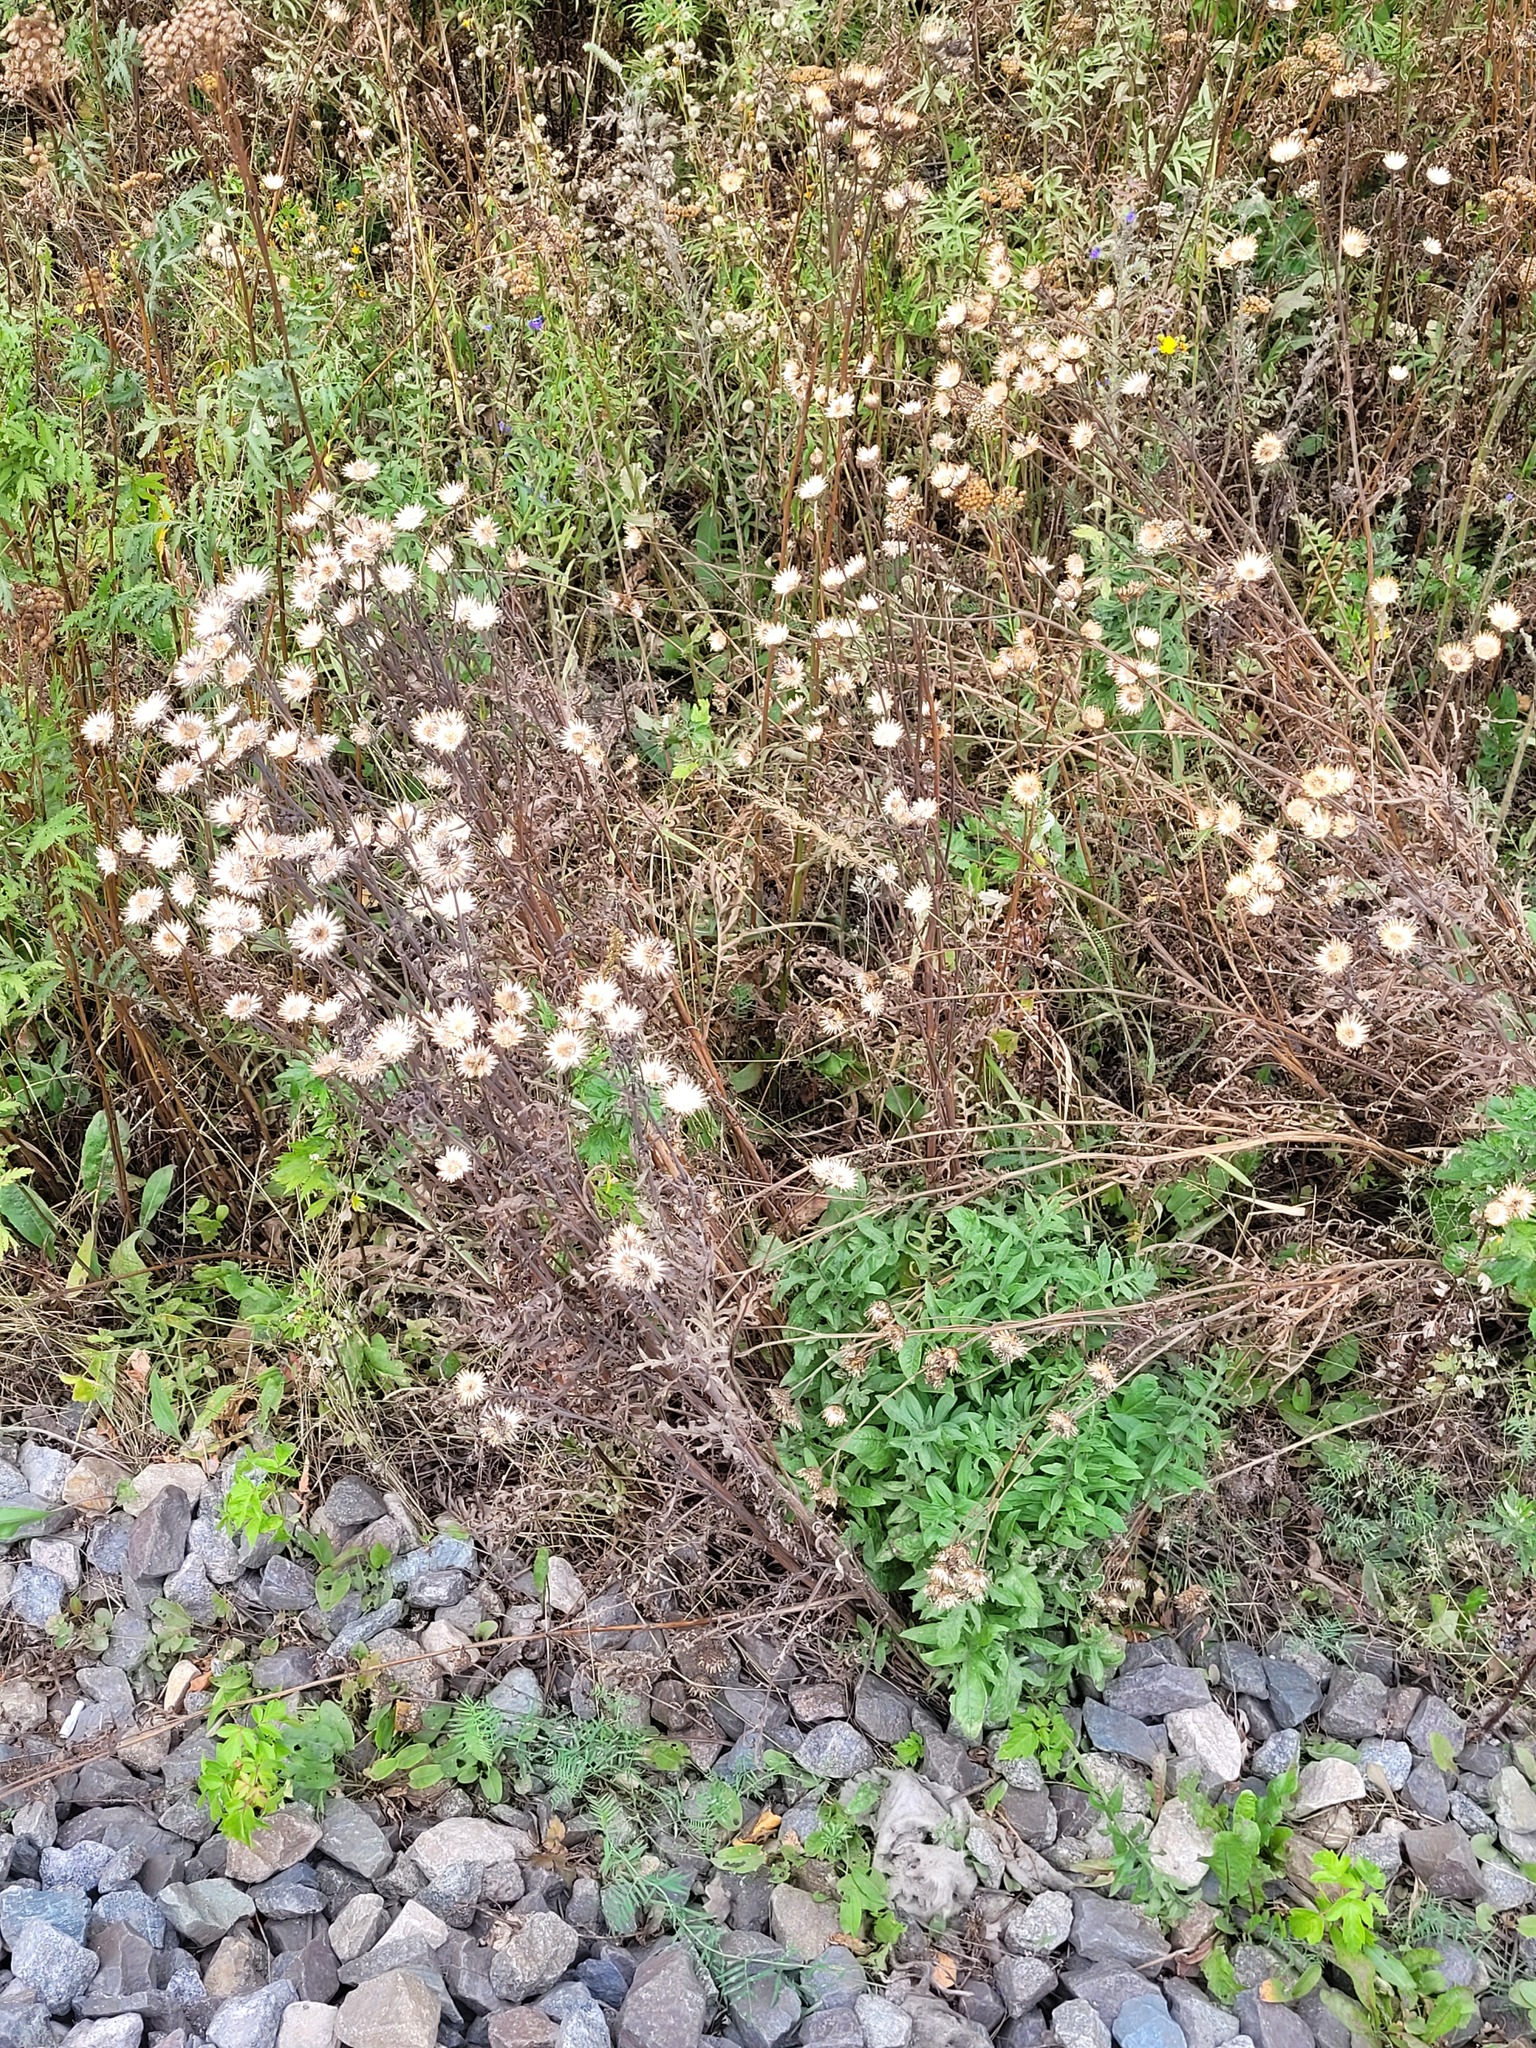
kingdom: Plantae
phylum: Tracheophyta
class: Magnoliopsida
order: Asterales
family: Asteraceae
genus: Centaurea
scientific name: Centaurea scabiosa
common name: Greater knapweed
